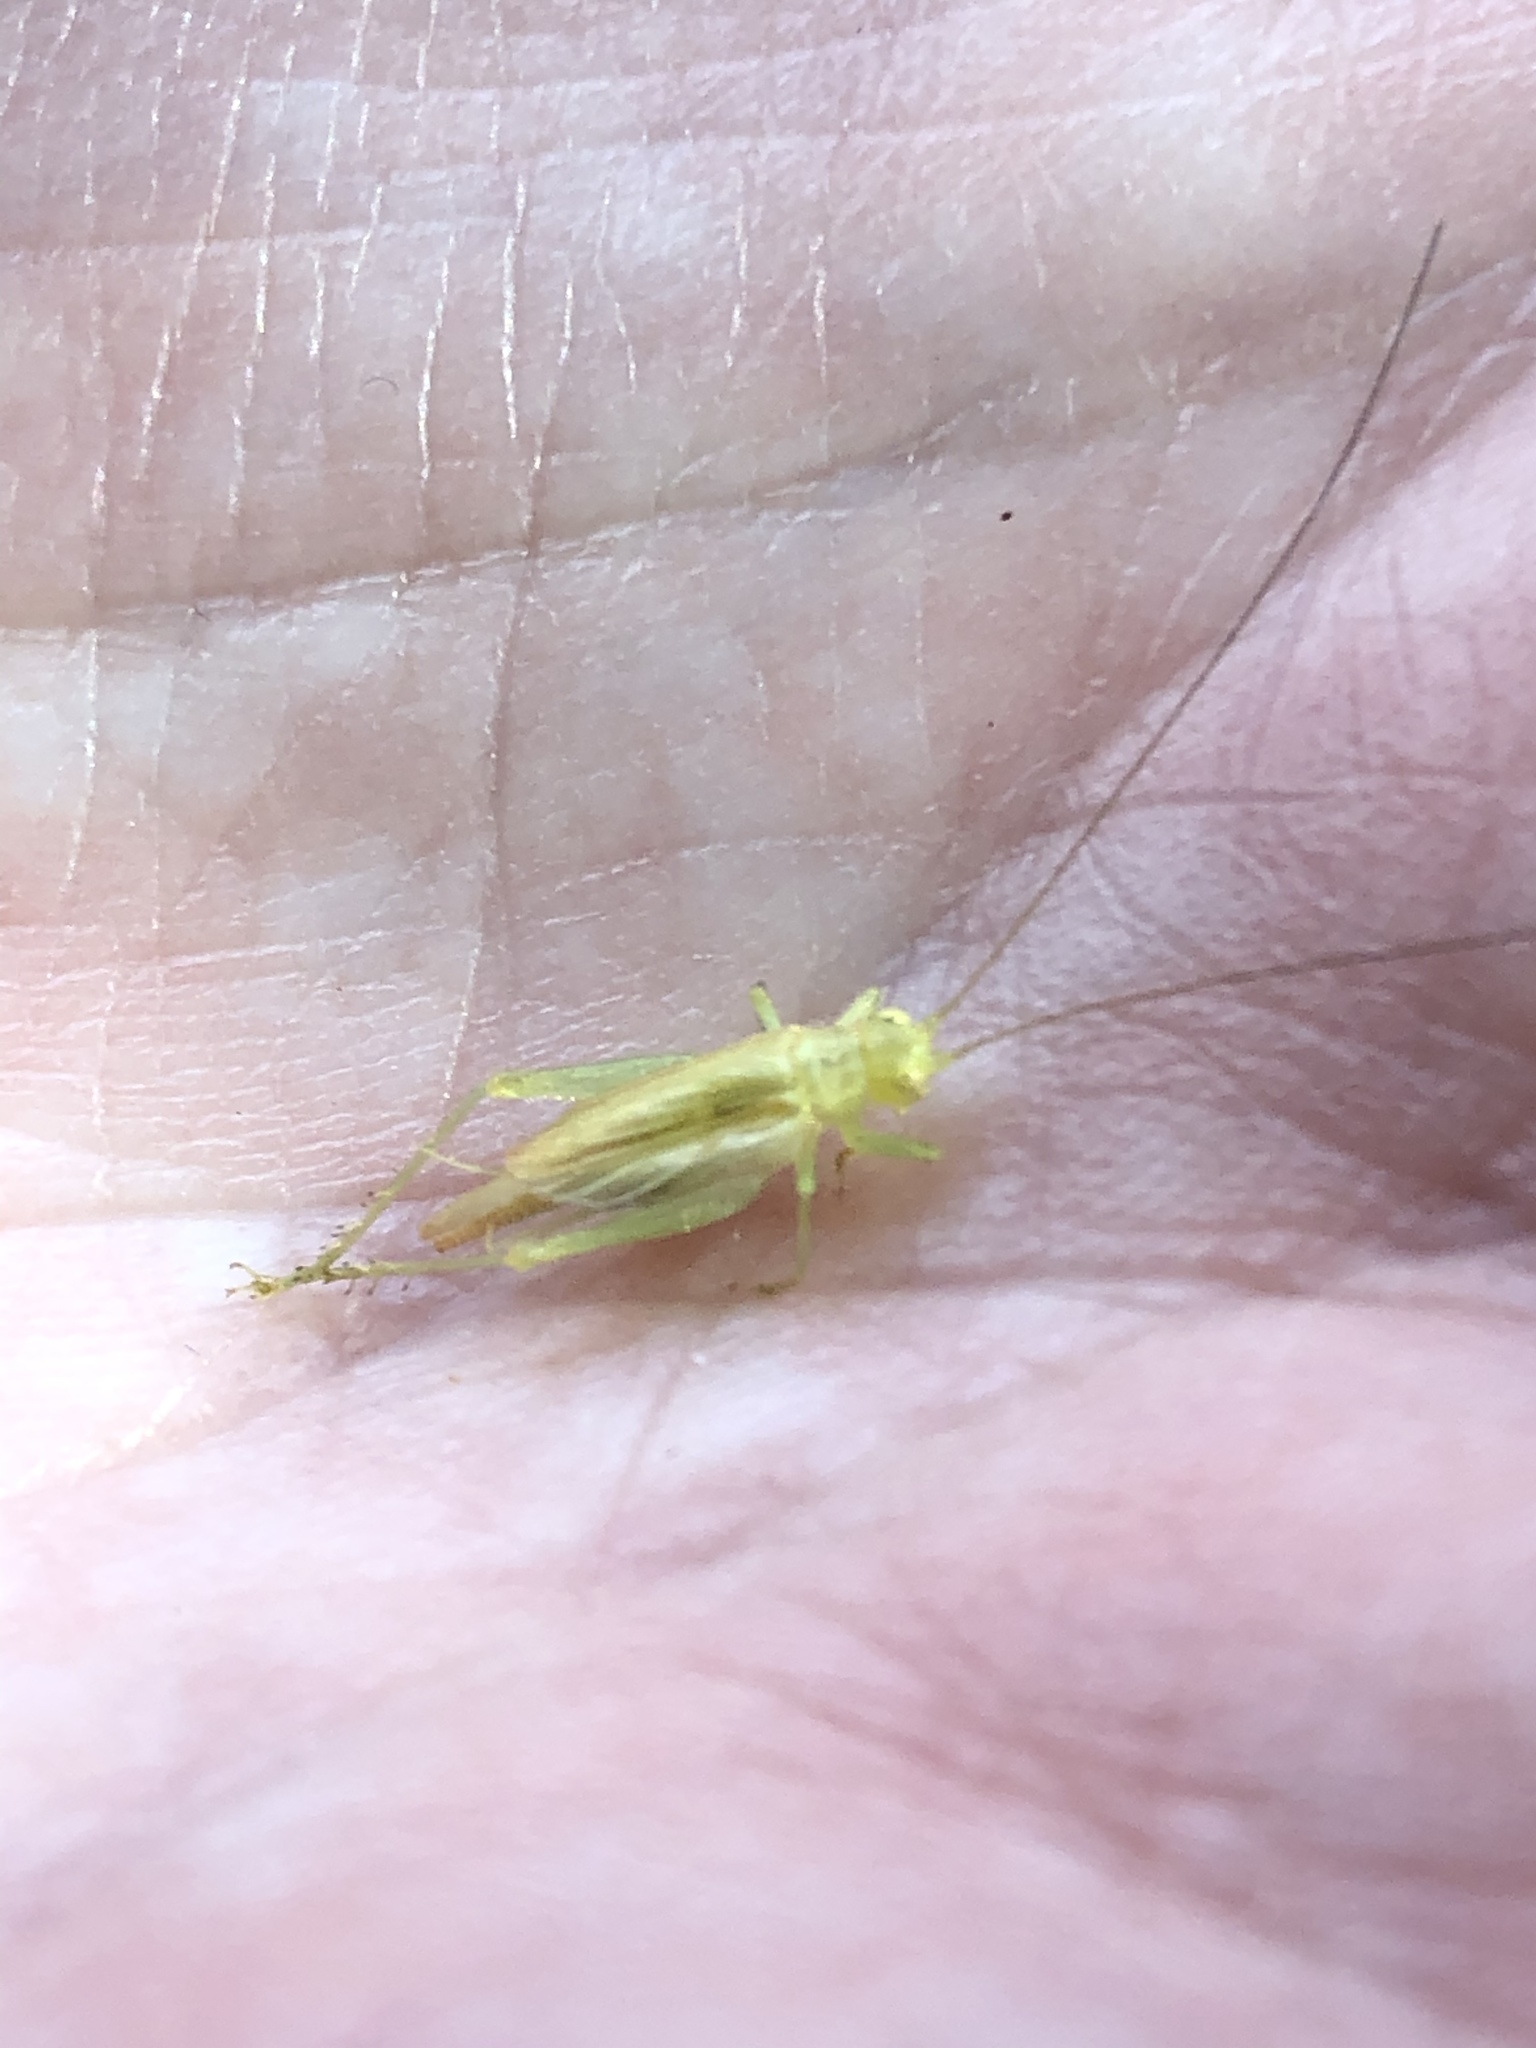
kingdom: Animalia
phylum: Arthropoda
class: Insecta
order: Orthoptera
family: Trigonidiidae
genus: Cyrtoxipha
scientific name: Cyrtoxipha columbiana
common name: Columbian trig
